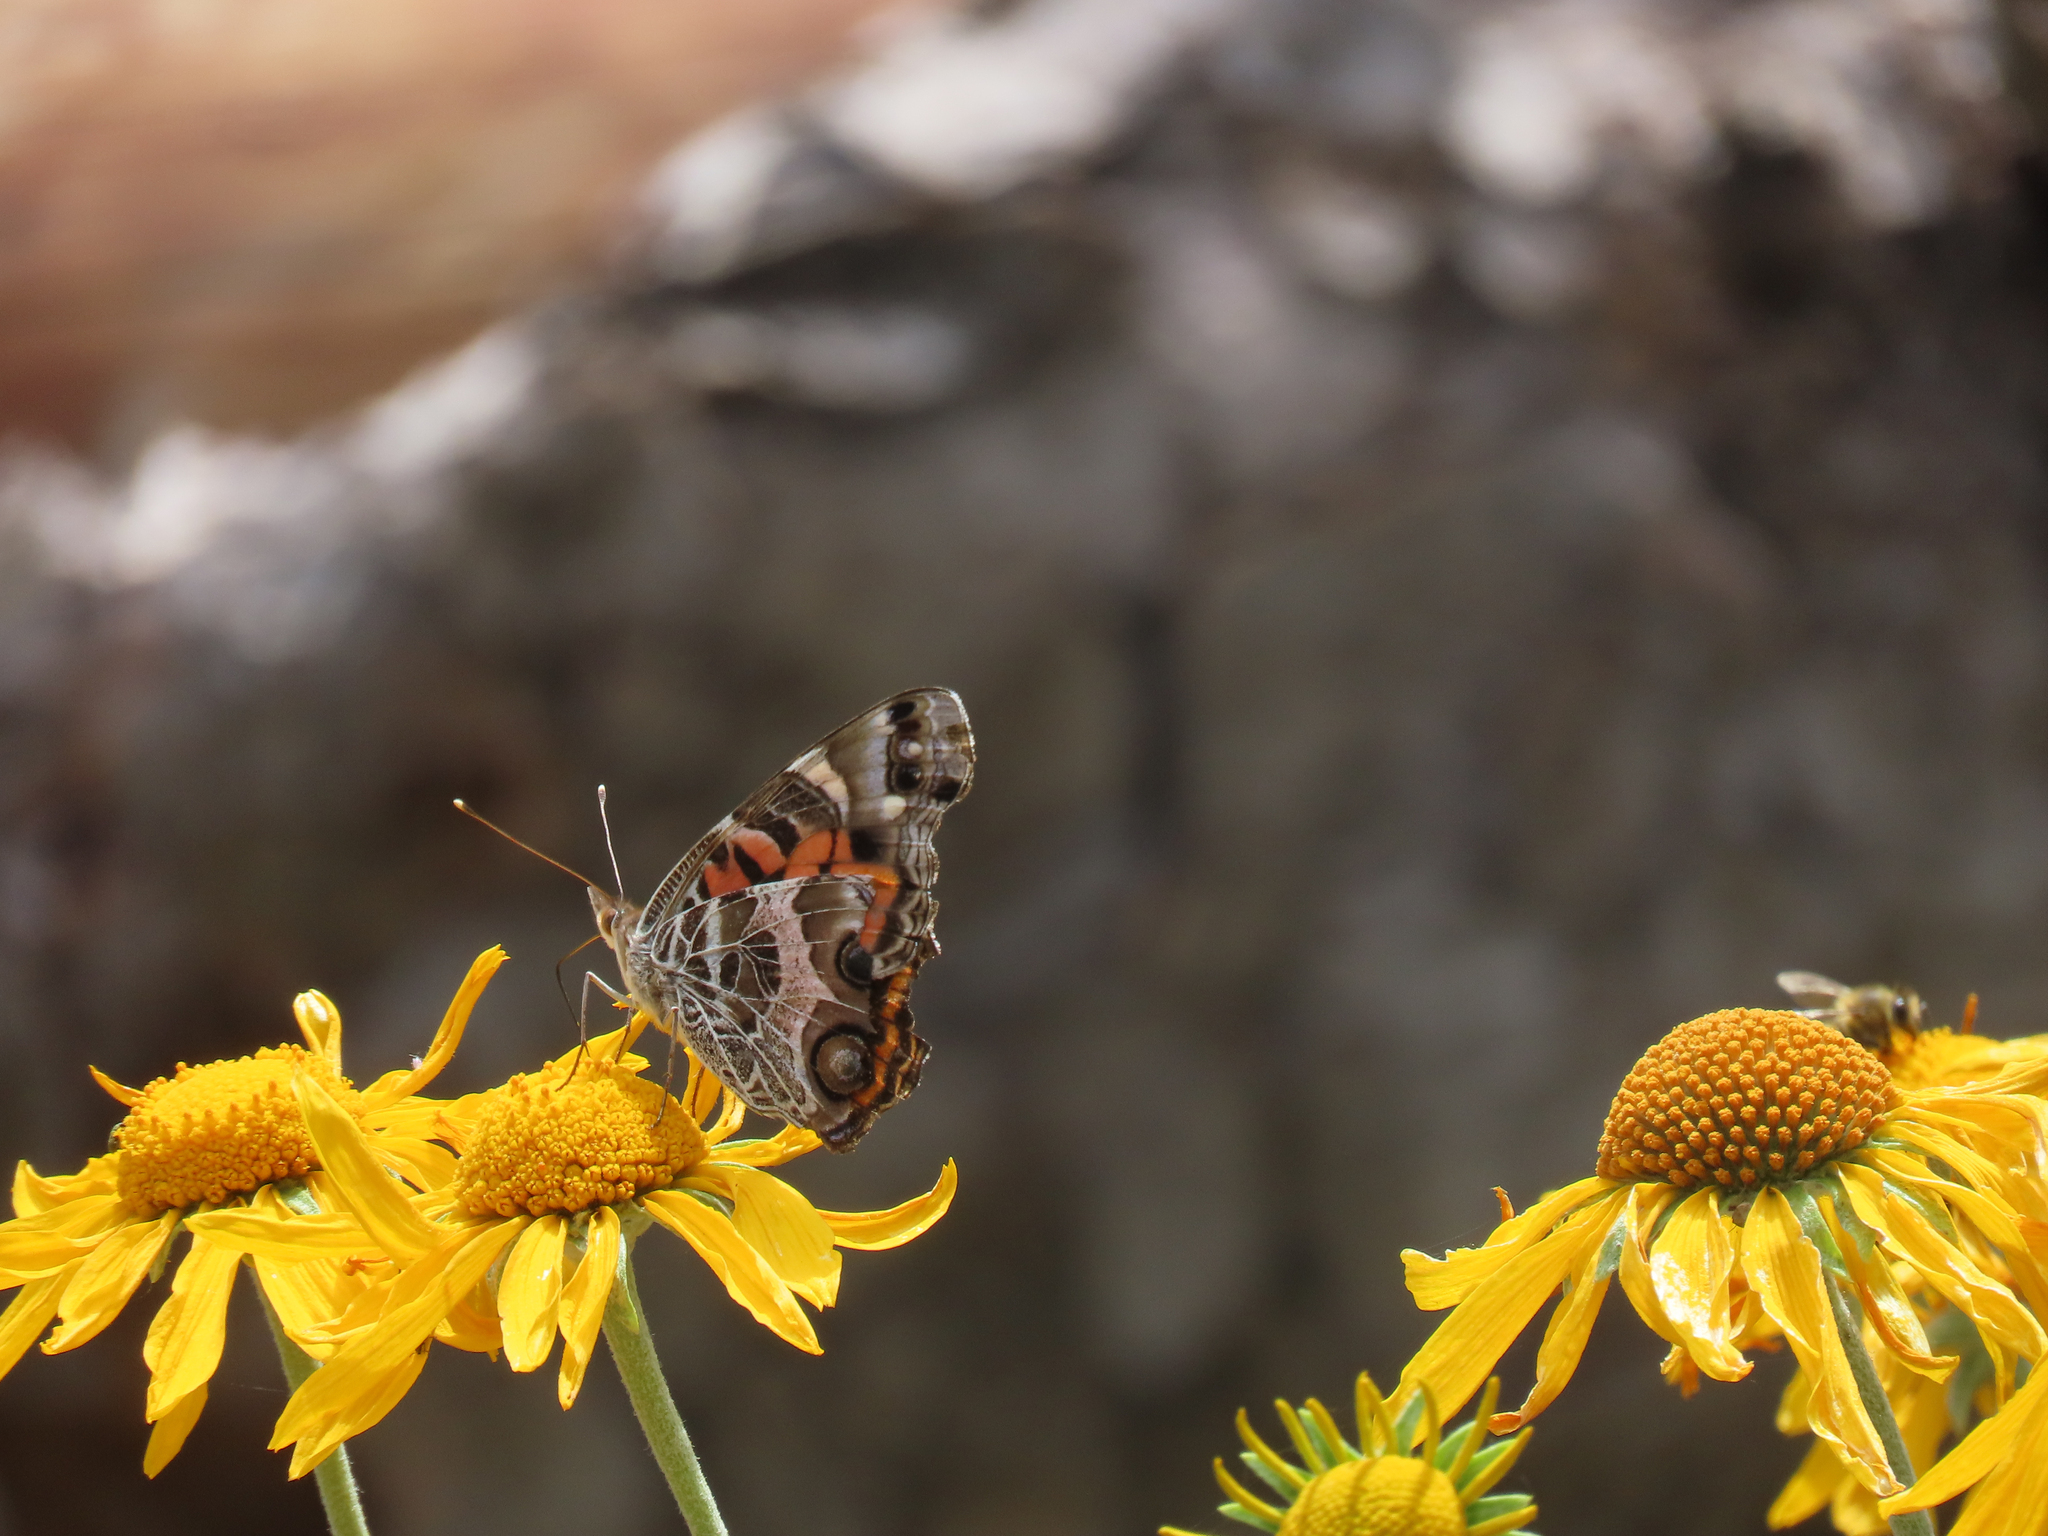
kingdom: Animalia
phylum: Arthropoda
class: Insecta
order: Lepidoptera
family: Nymphalidae
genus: Vanessa
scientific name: Vanessa virginiensis
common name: American lady
